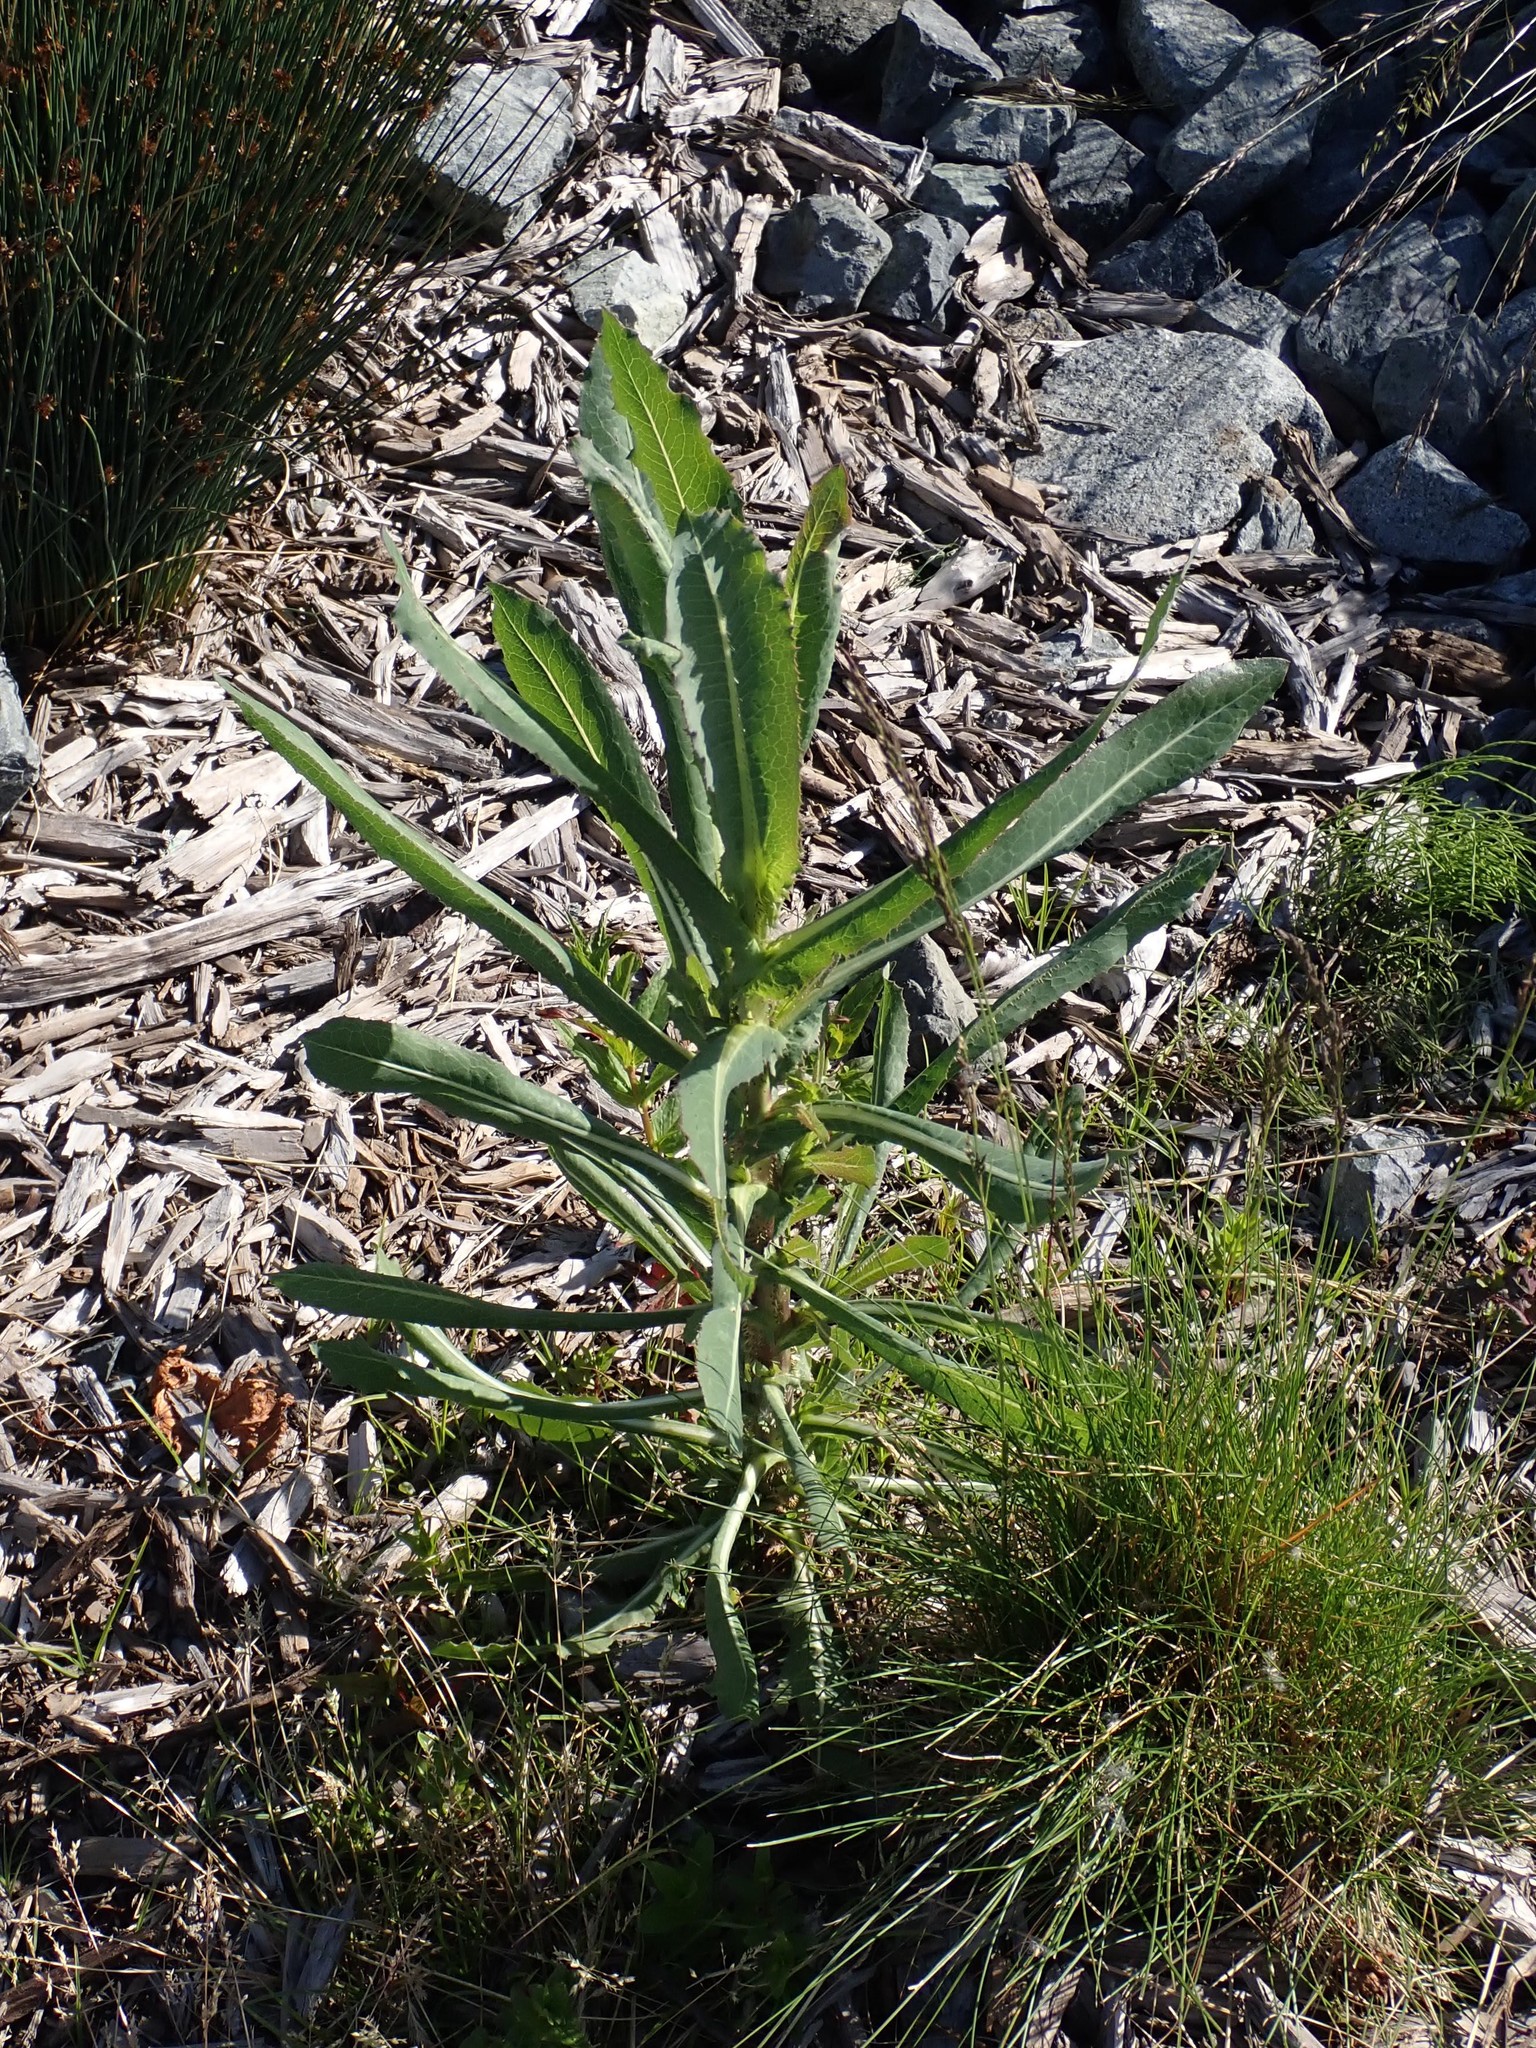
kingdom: Plantae
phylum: Tracheophyta
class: Magnoliopsida
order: Asterales
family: Asteraceae
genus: Lactuca
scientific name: Lactuca serriola
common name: Prickly lettuce
